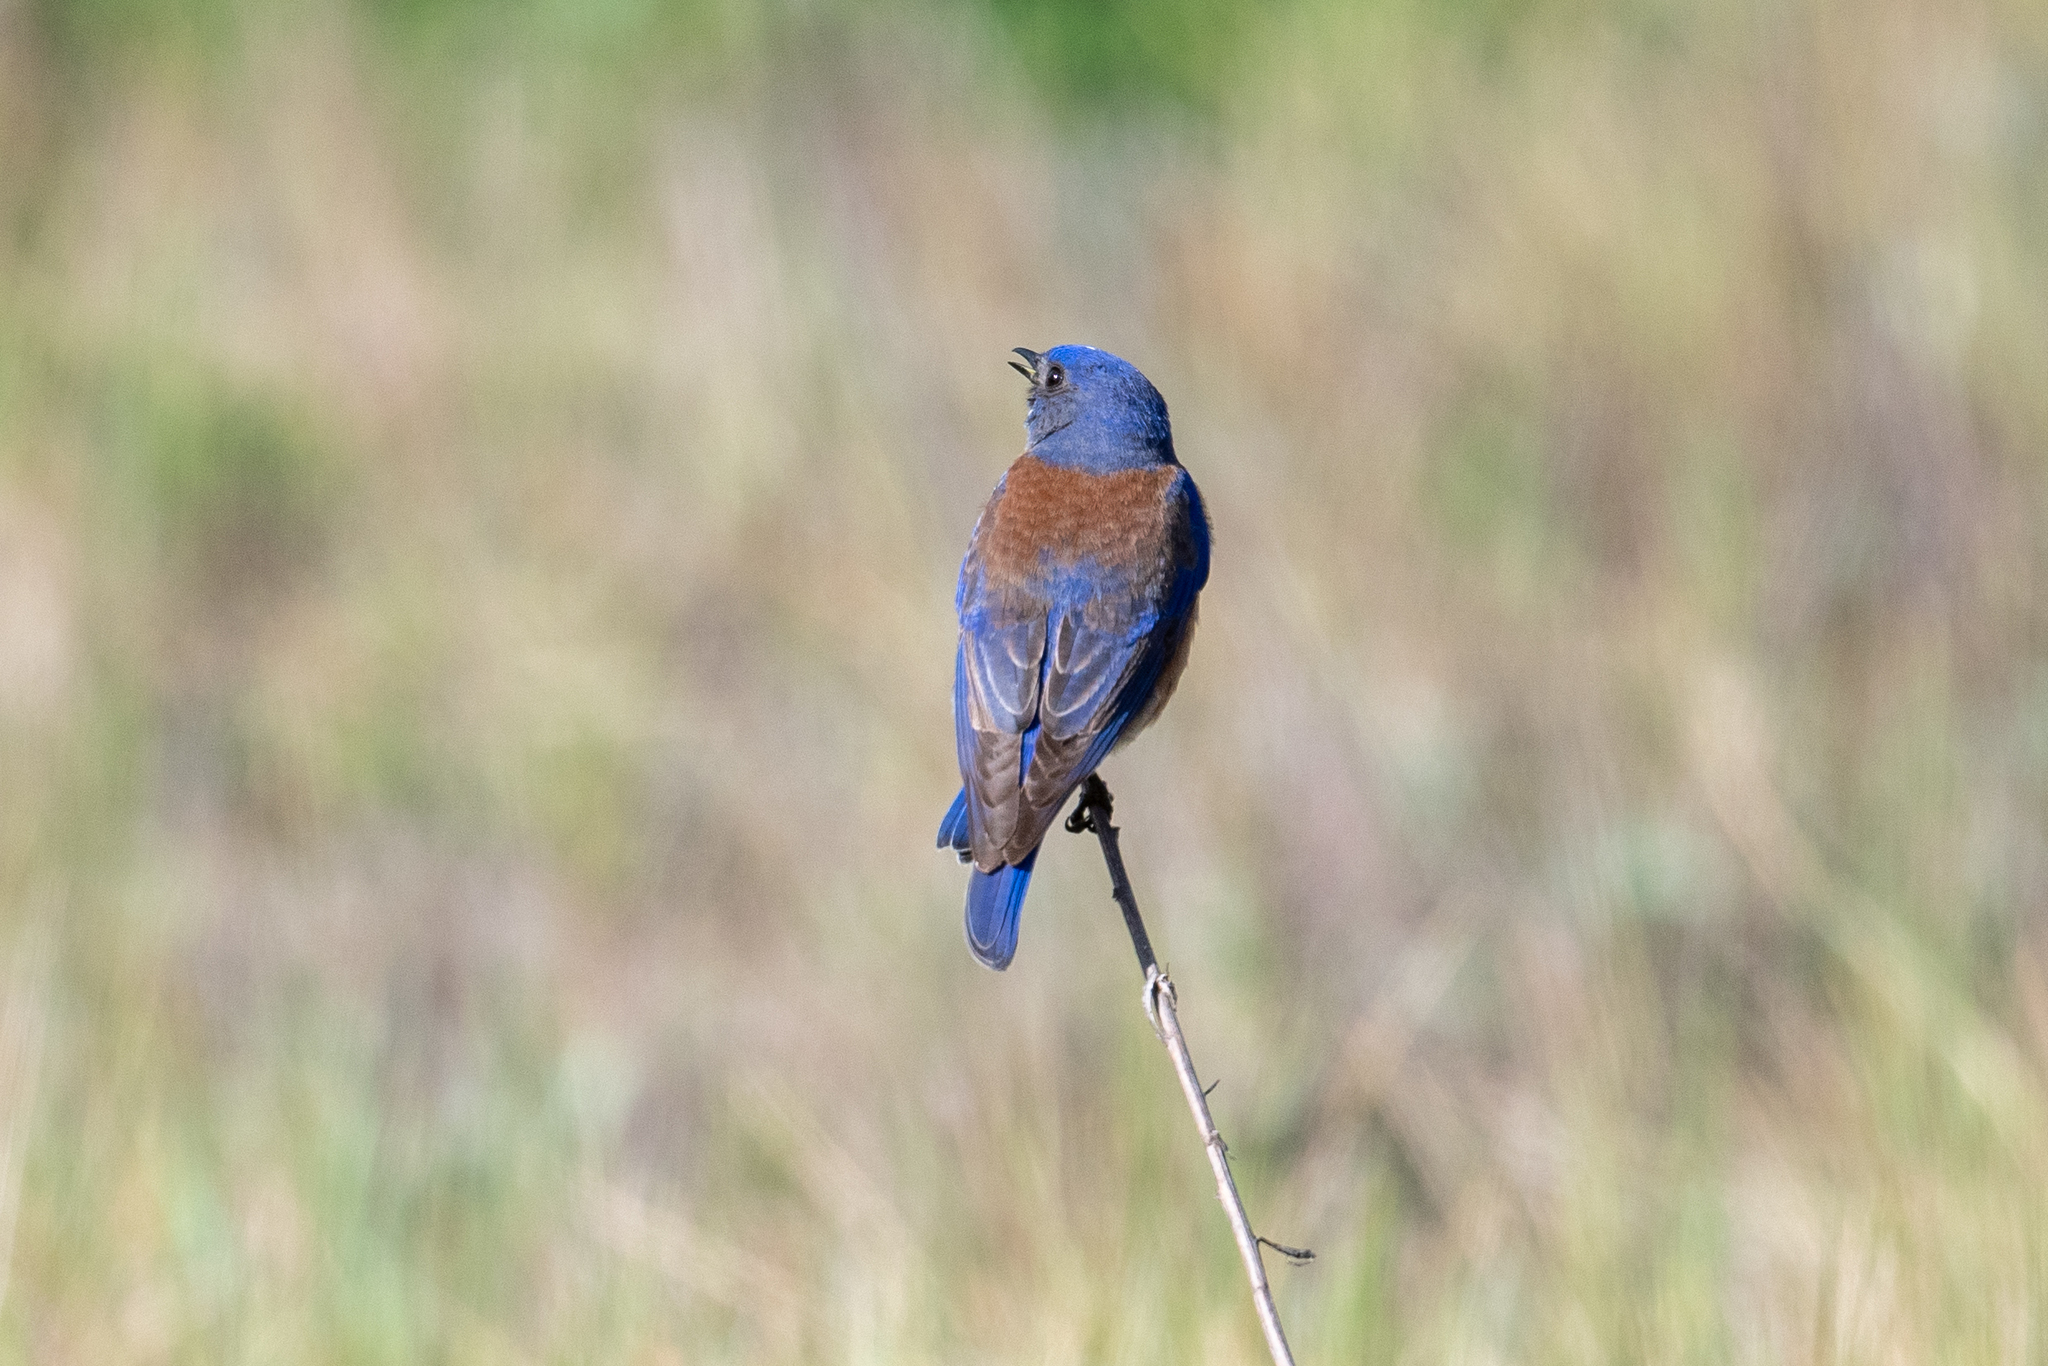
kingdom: Animalia
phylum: Chordata
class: Aves
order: Passeriformes
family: Turdidae
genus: Sialia
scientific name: Sialia mexicana
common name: Western bluebird
